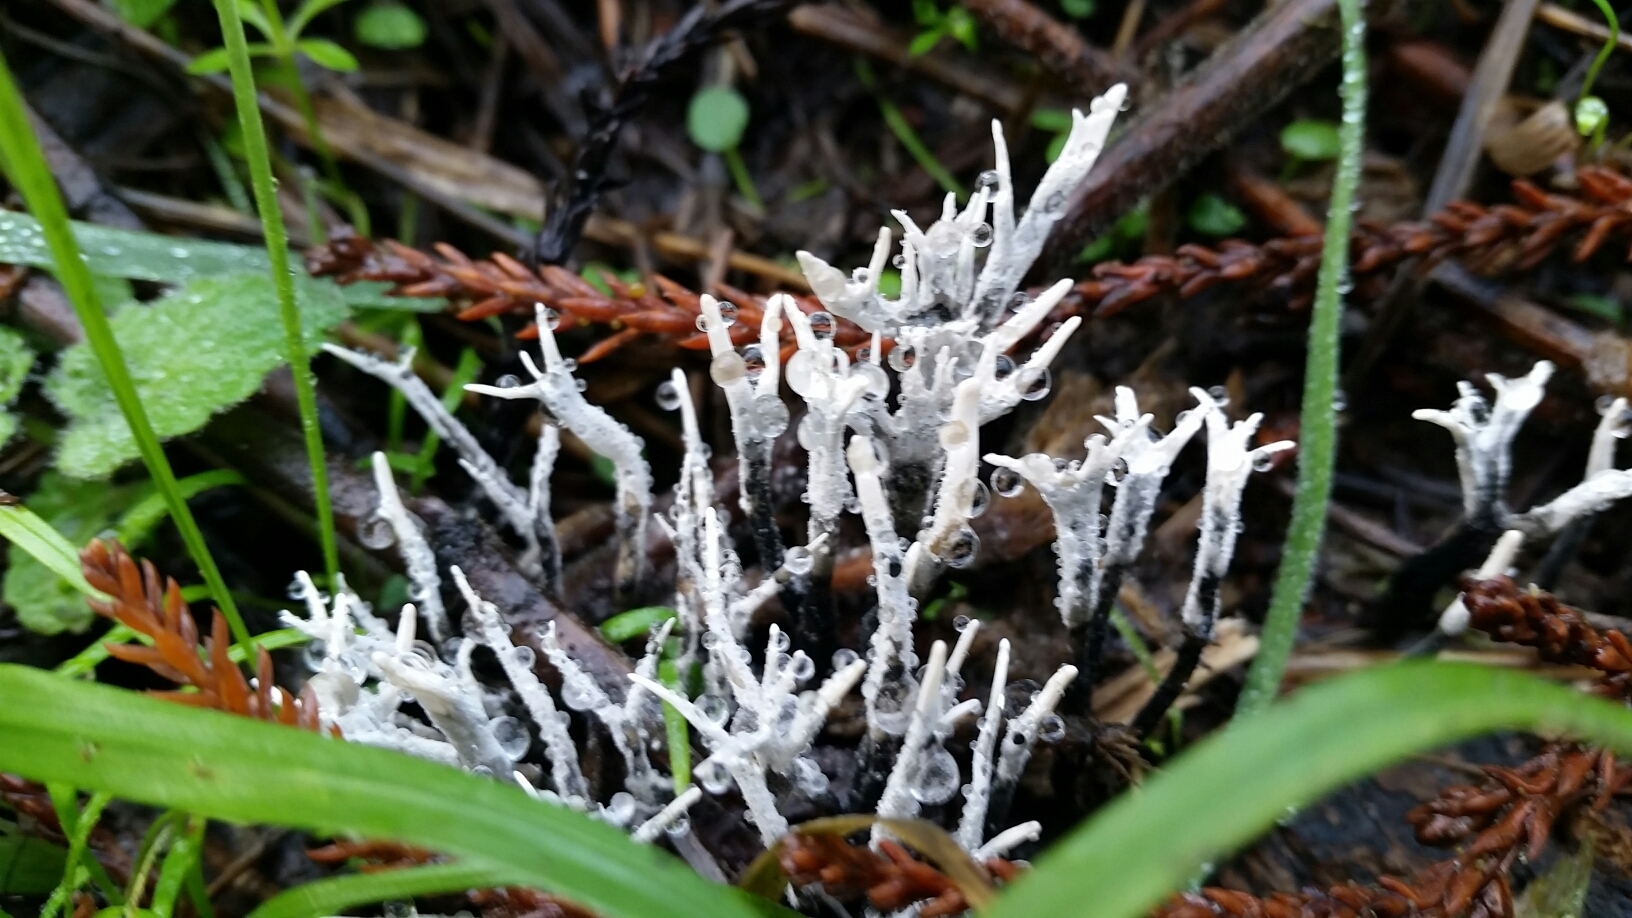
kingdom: Fungi
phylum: Ascomycota
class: Sordariomycetes
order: Xylariales
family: Xylariaceae
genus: Xylaria
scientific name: Xylaria hypoxylon
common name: Candle-snuff fungus
